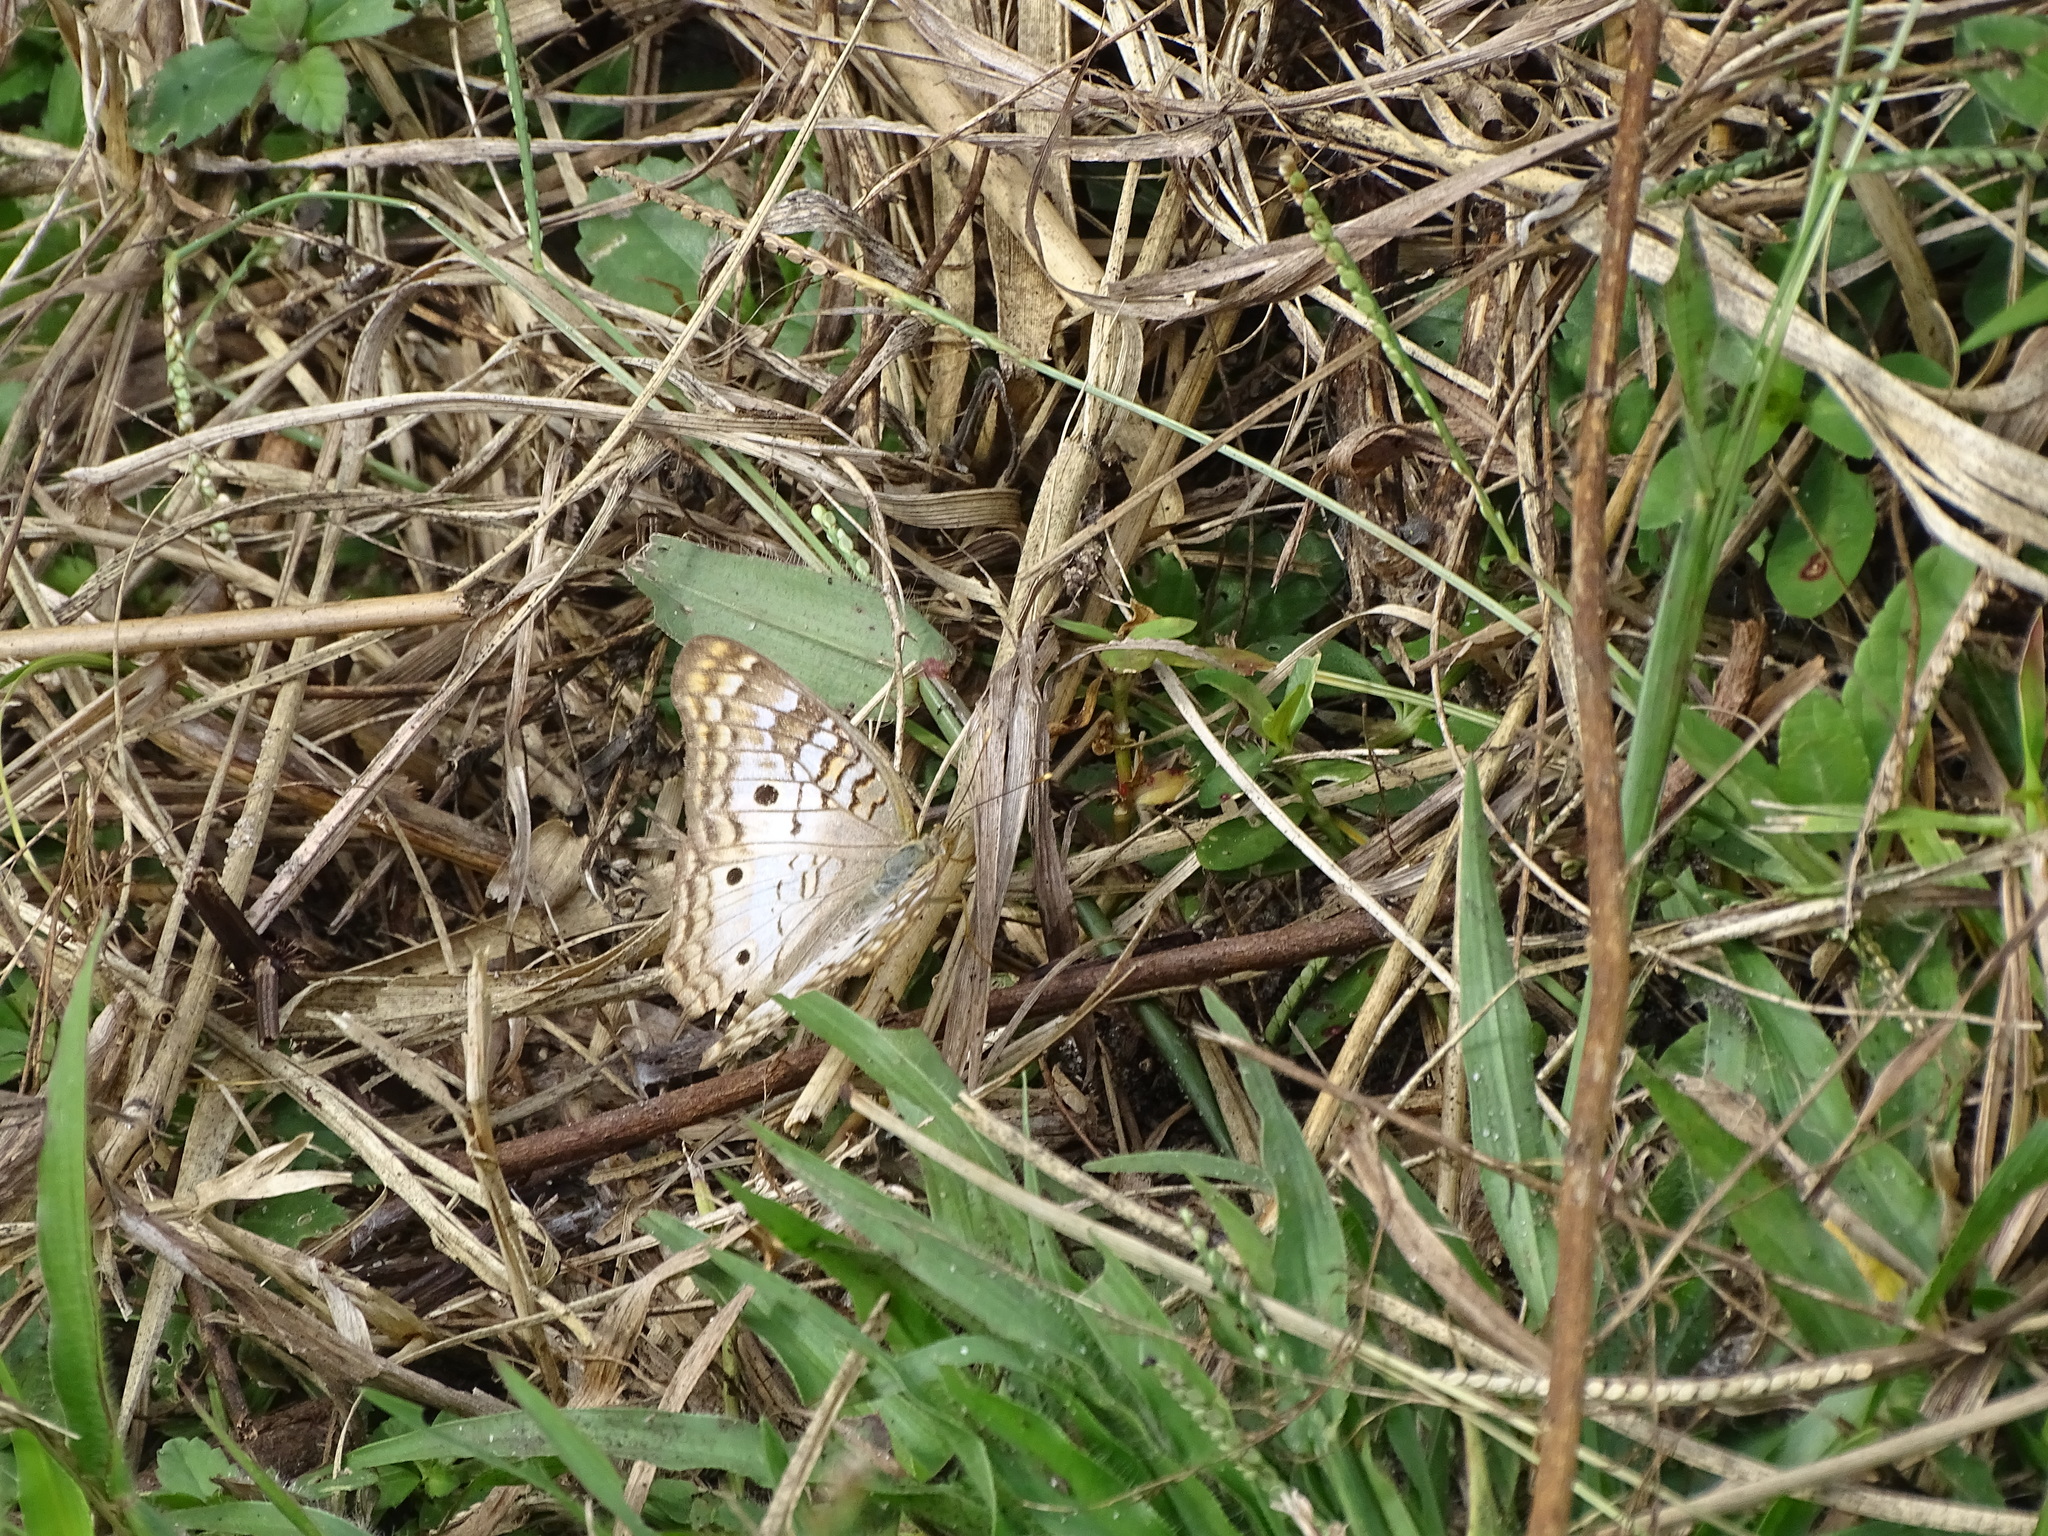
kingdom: Animalia
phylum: Arthropoda
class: Insecta
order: Lepidoptera
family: Nymphalidae
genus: Anartia
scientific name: Anartia jatrophae
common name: White peacock
